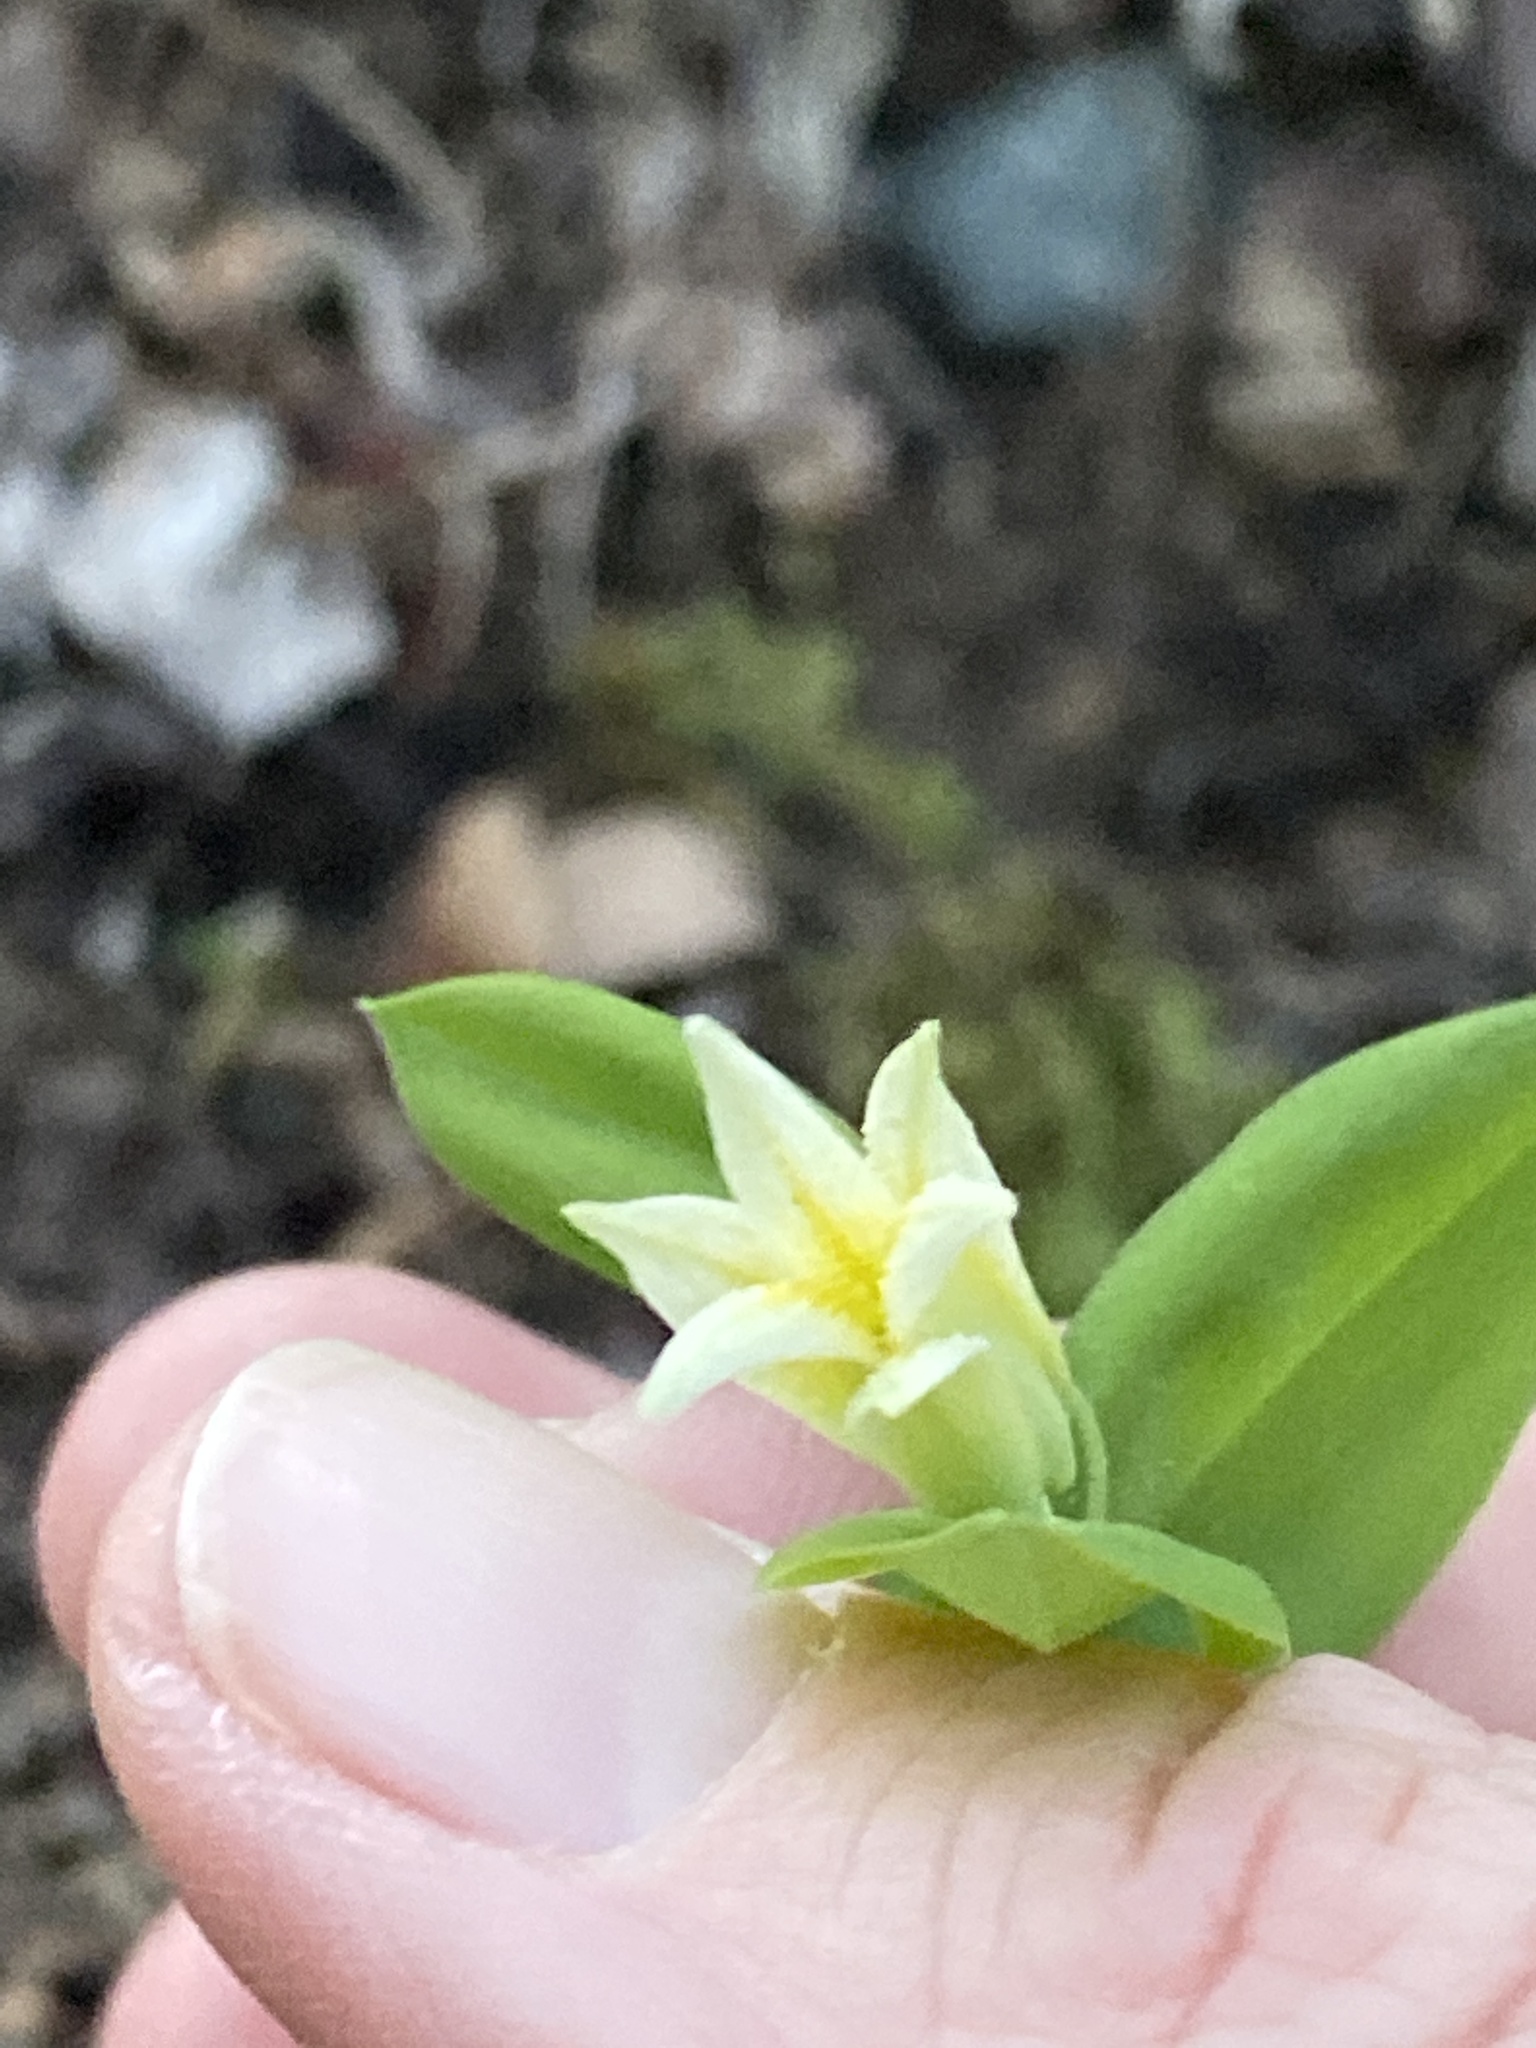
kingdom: Plantae
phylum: Tracheophyta
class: Liliopsida
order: Liliales
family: Colchicaceae
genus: Uvularia
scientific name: Uvularia perfoliata
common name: Perfoliate bellwort
